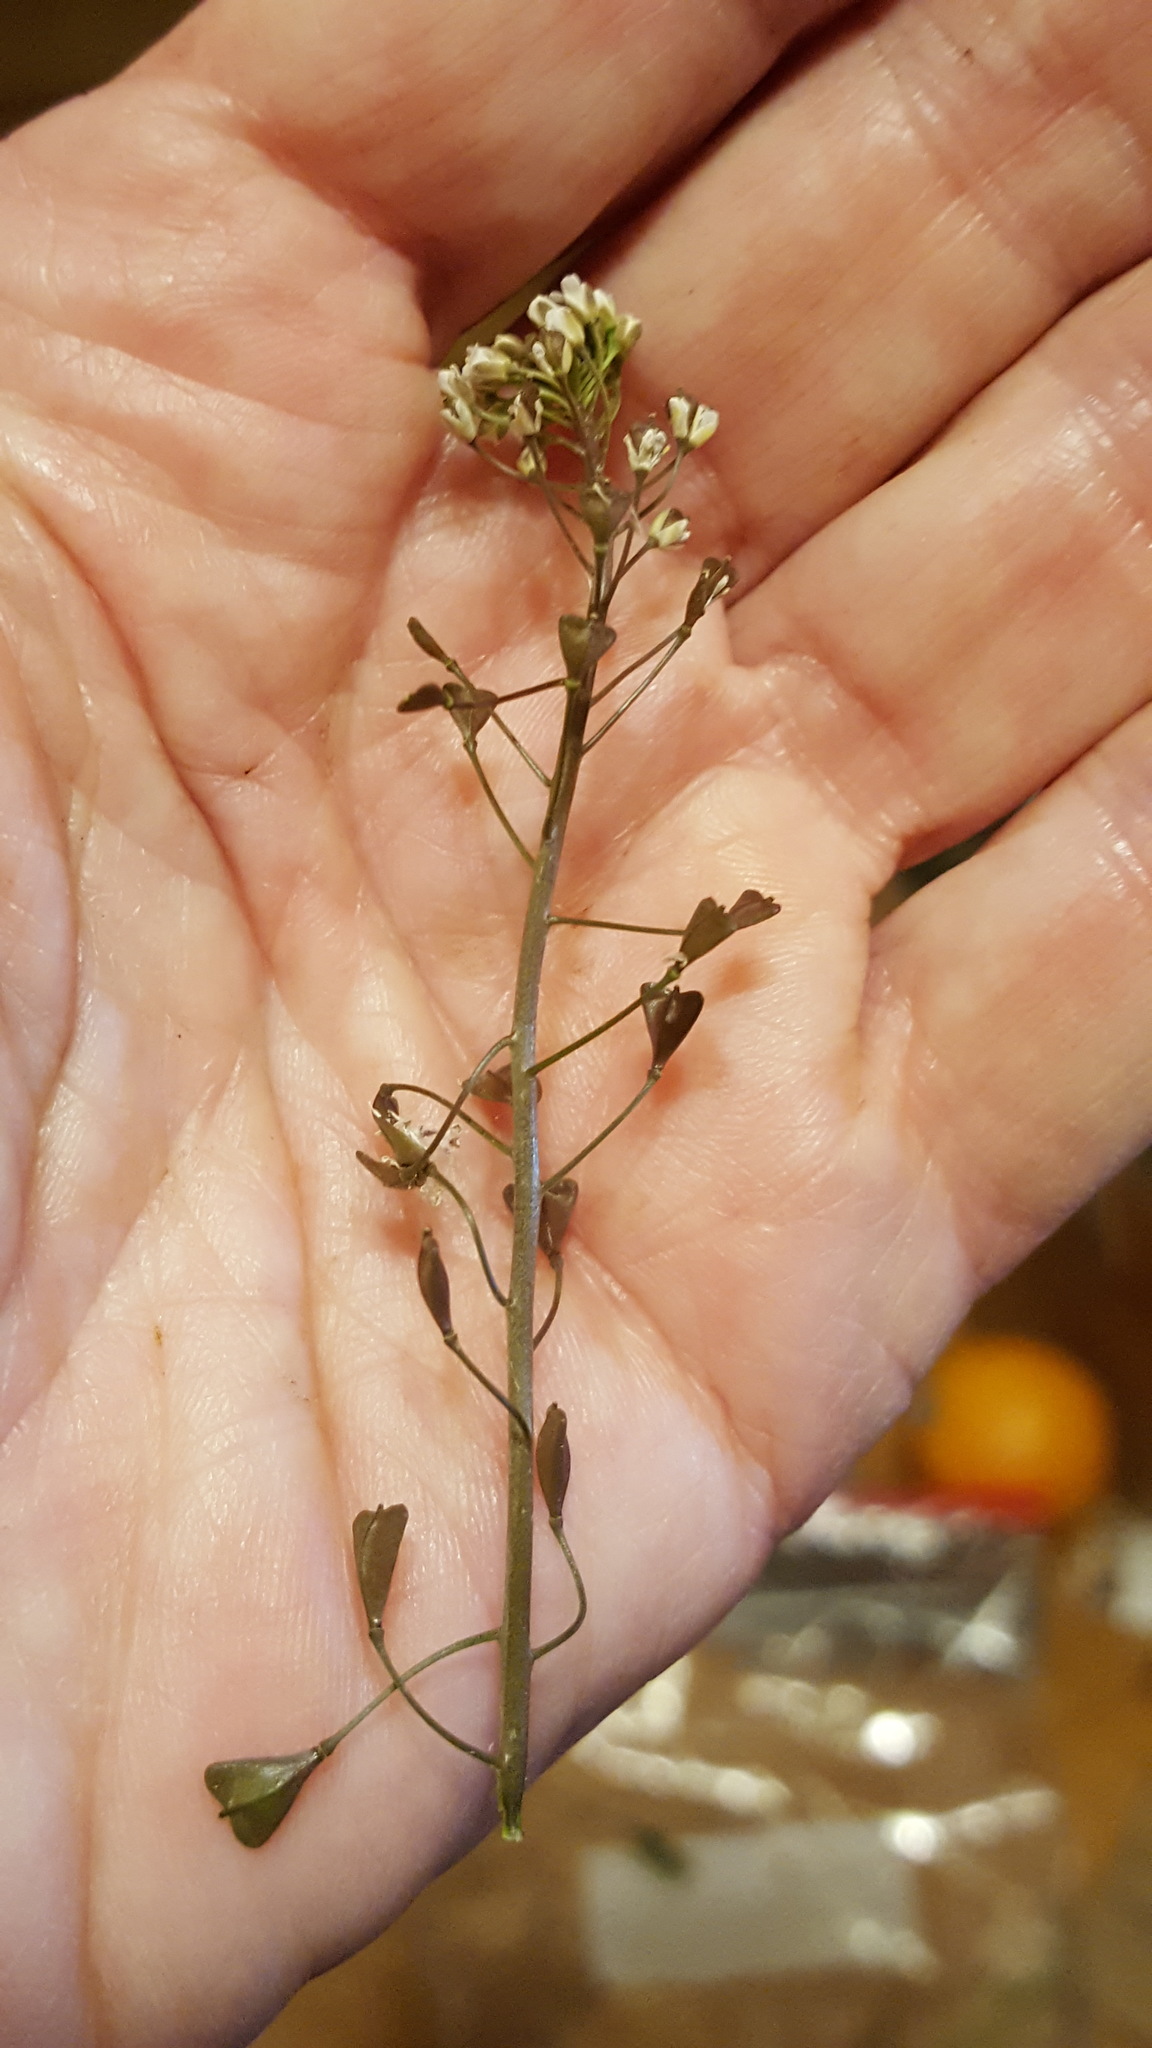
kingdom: Plantae
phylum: Tracheophyta
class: Magnoliopsida
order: Brassicales
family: Brassicaceae
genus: Capsella
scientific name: Capsella bursa-pastoris
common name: Shepherd's purse
